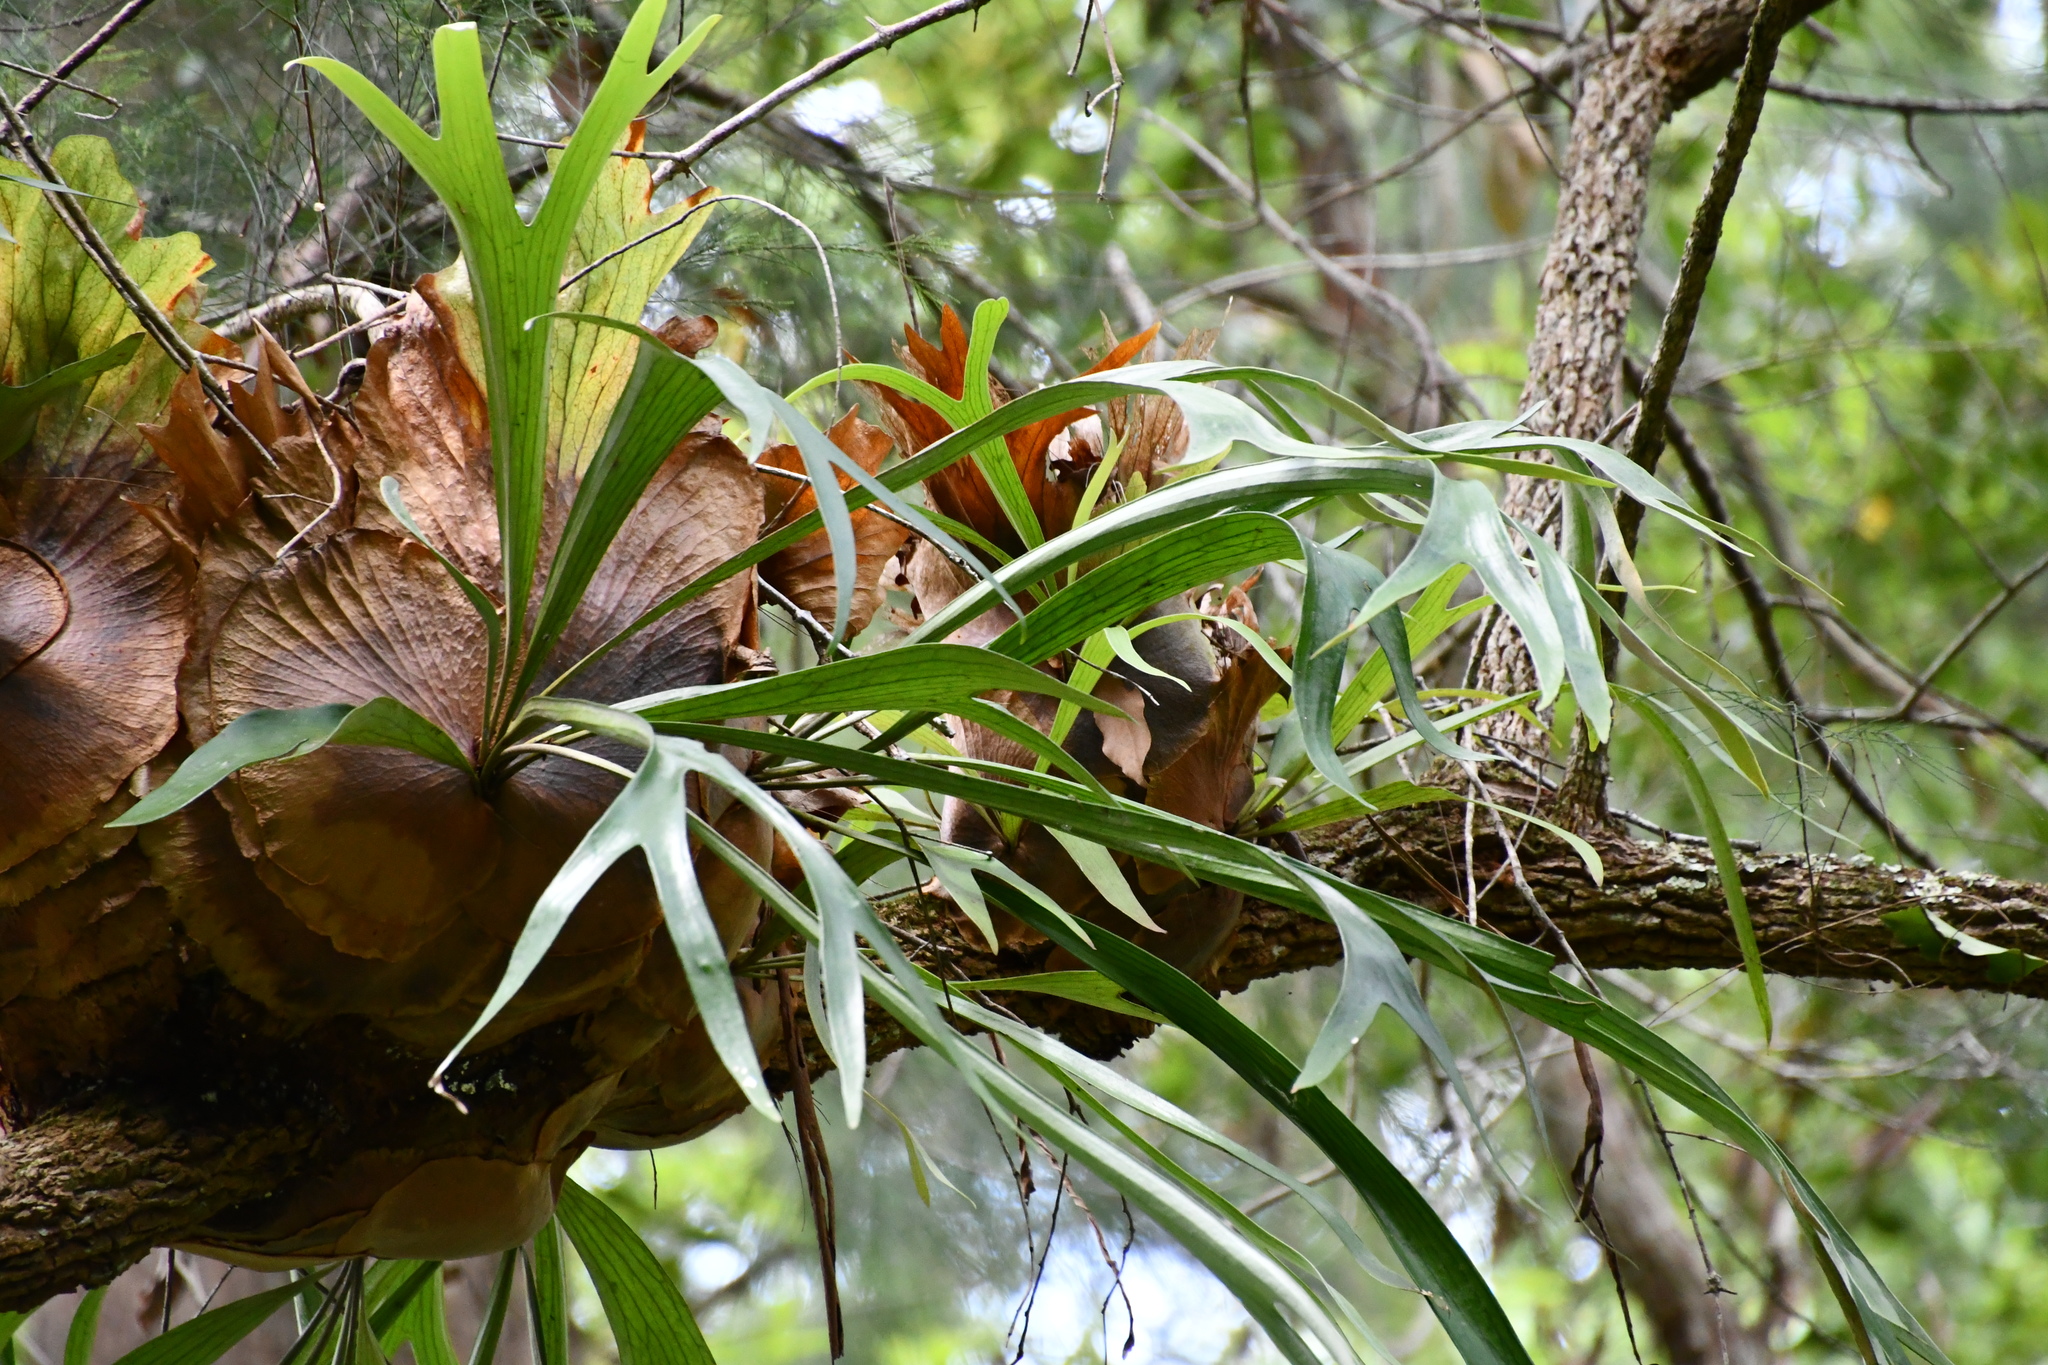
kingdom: Plantae
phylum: Tracheophyta
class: Polypodiopsida
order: Polypodiales
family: Polypodiaceae
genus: Platycerium
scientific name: Platycerium bifurcatum
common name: Elkhorn fern
